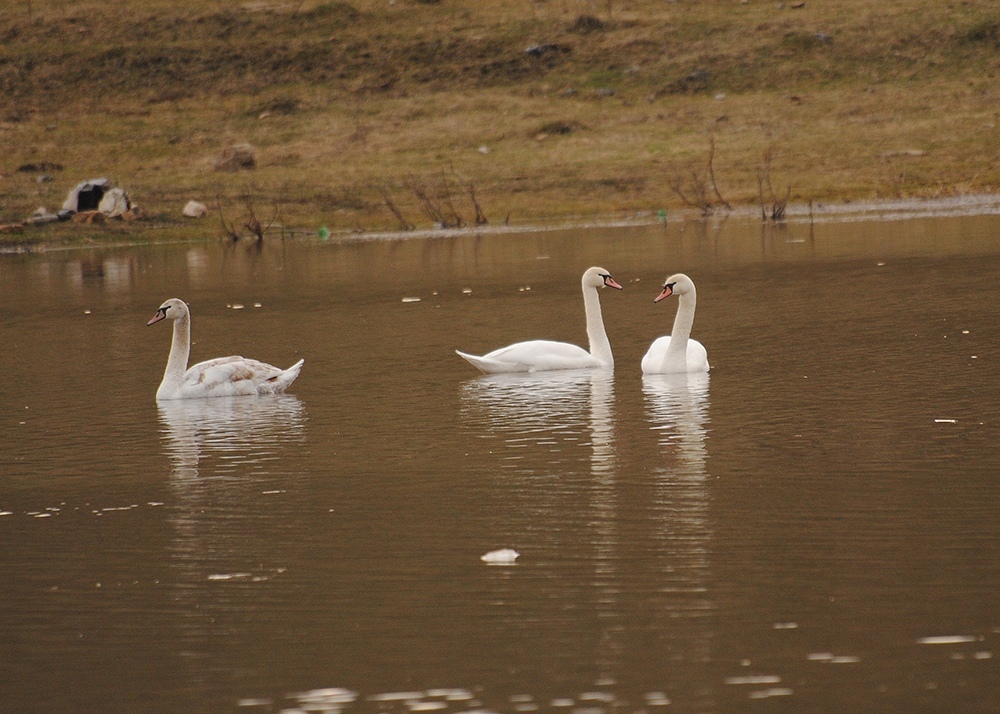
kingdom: Animalia
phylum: Chordata
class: Aves
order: Anseriformes
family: Anatidae
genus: Cygnus
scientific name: Cygnus olor
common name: Mute swan
